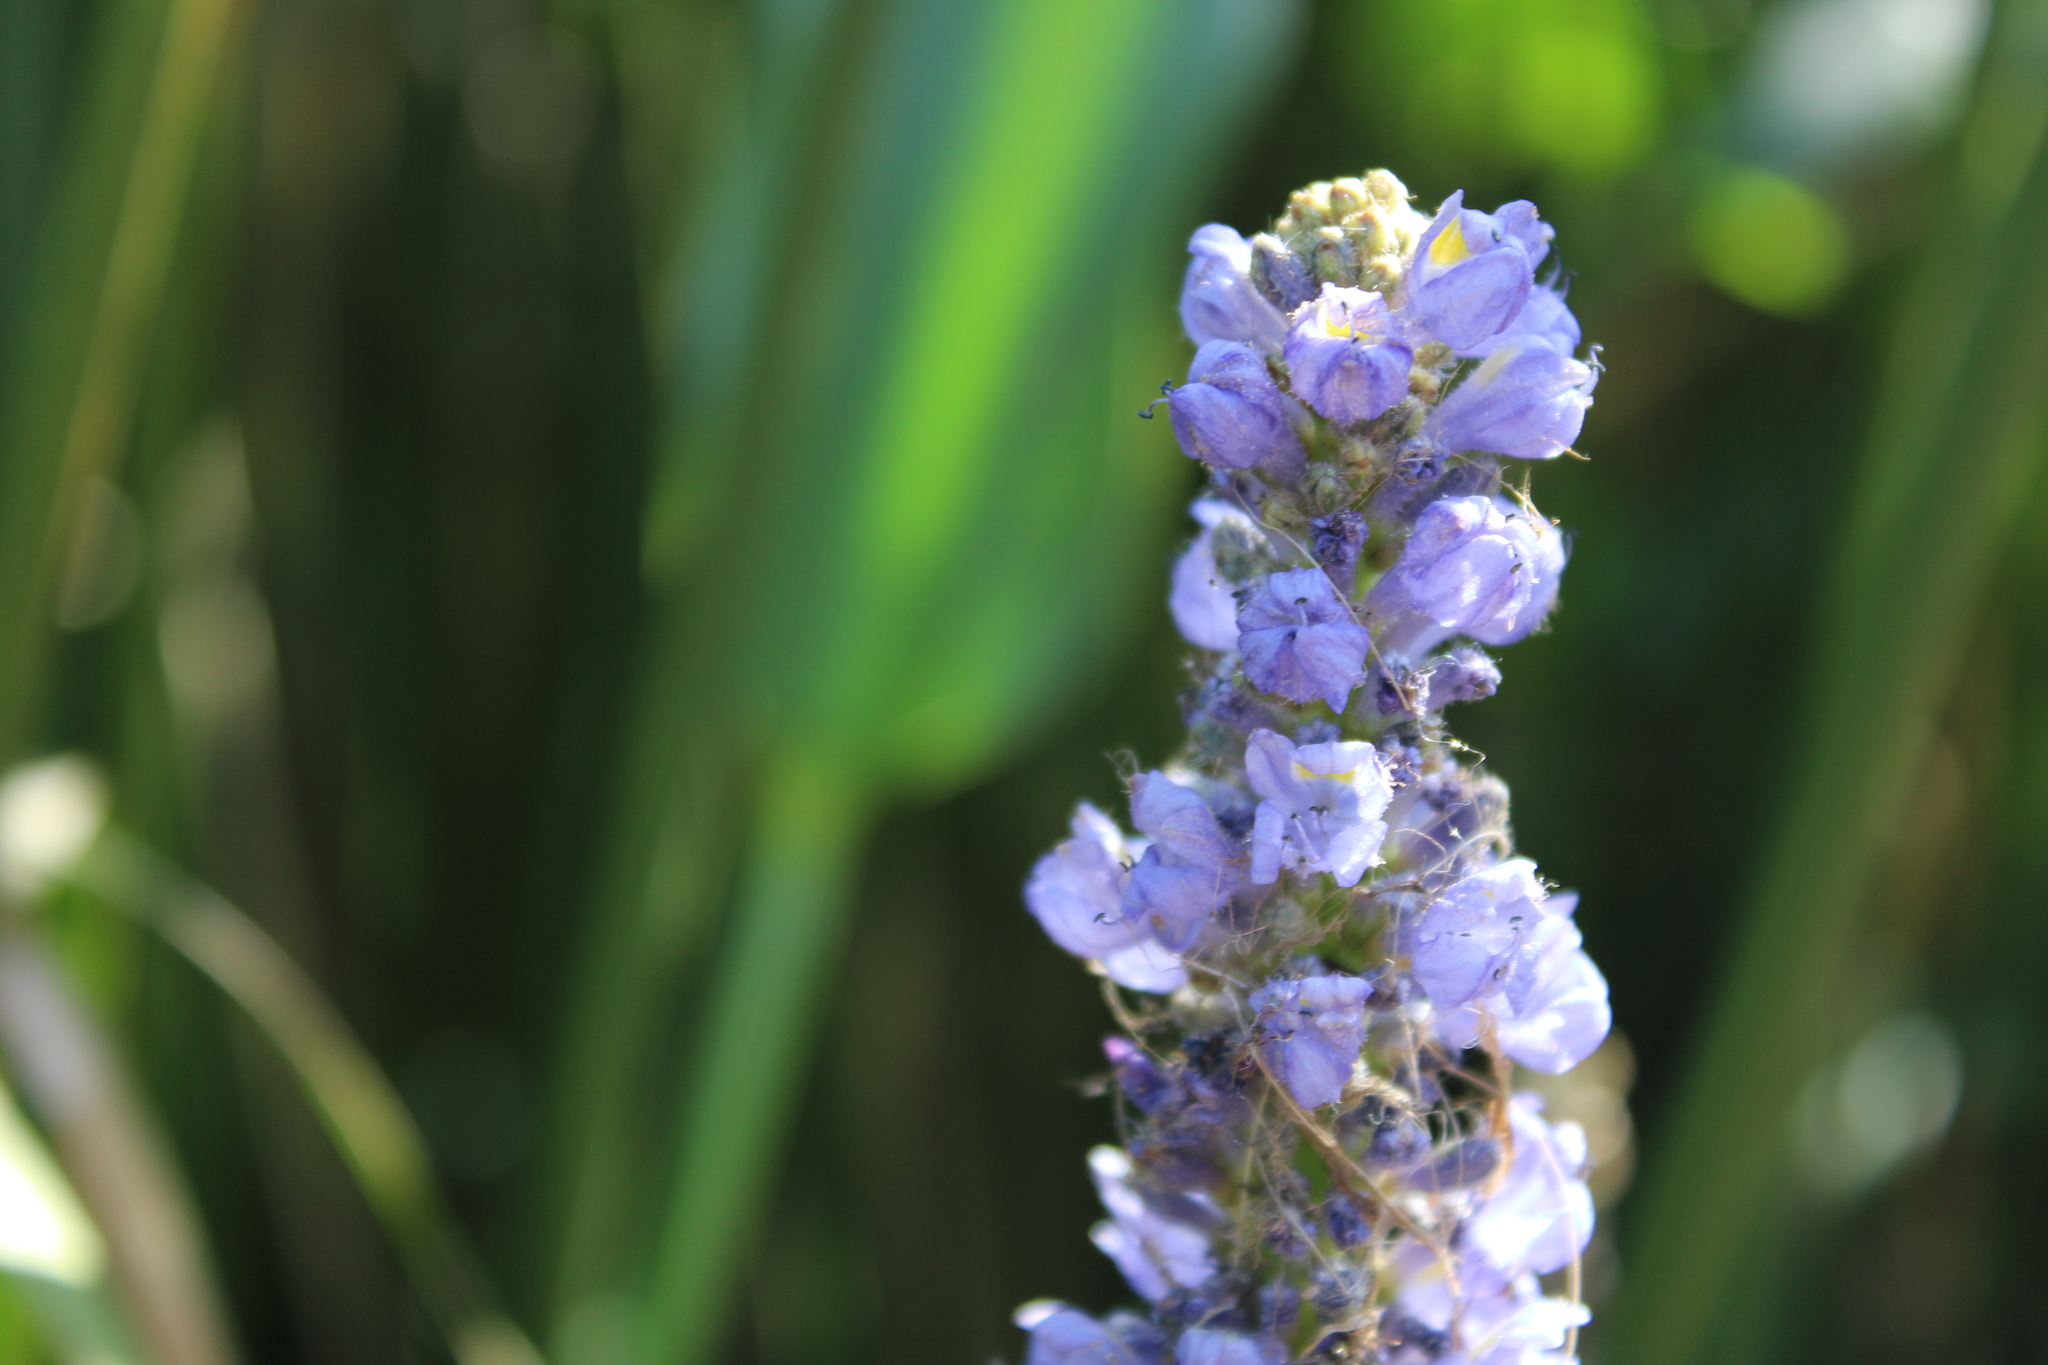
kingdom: Plantae
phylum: Tracheophyta
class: Liliopsida
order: Commelinales
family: Pontederiaceae
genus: Pontederia
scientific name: Pontederia cordata
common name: Pickerelweed
